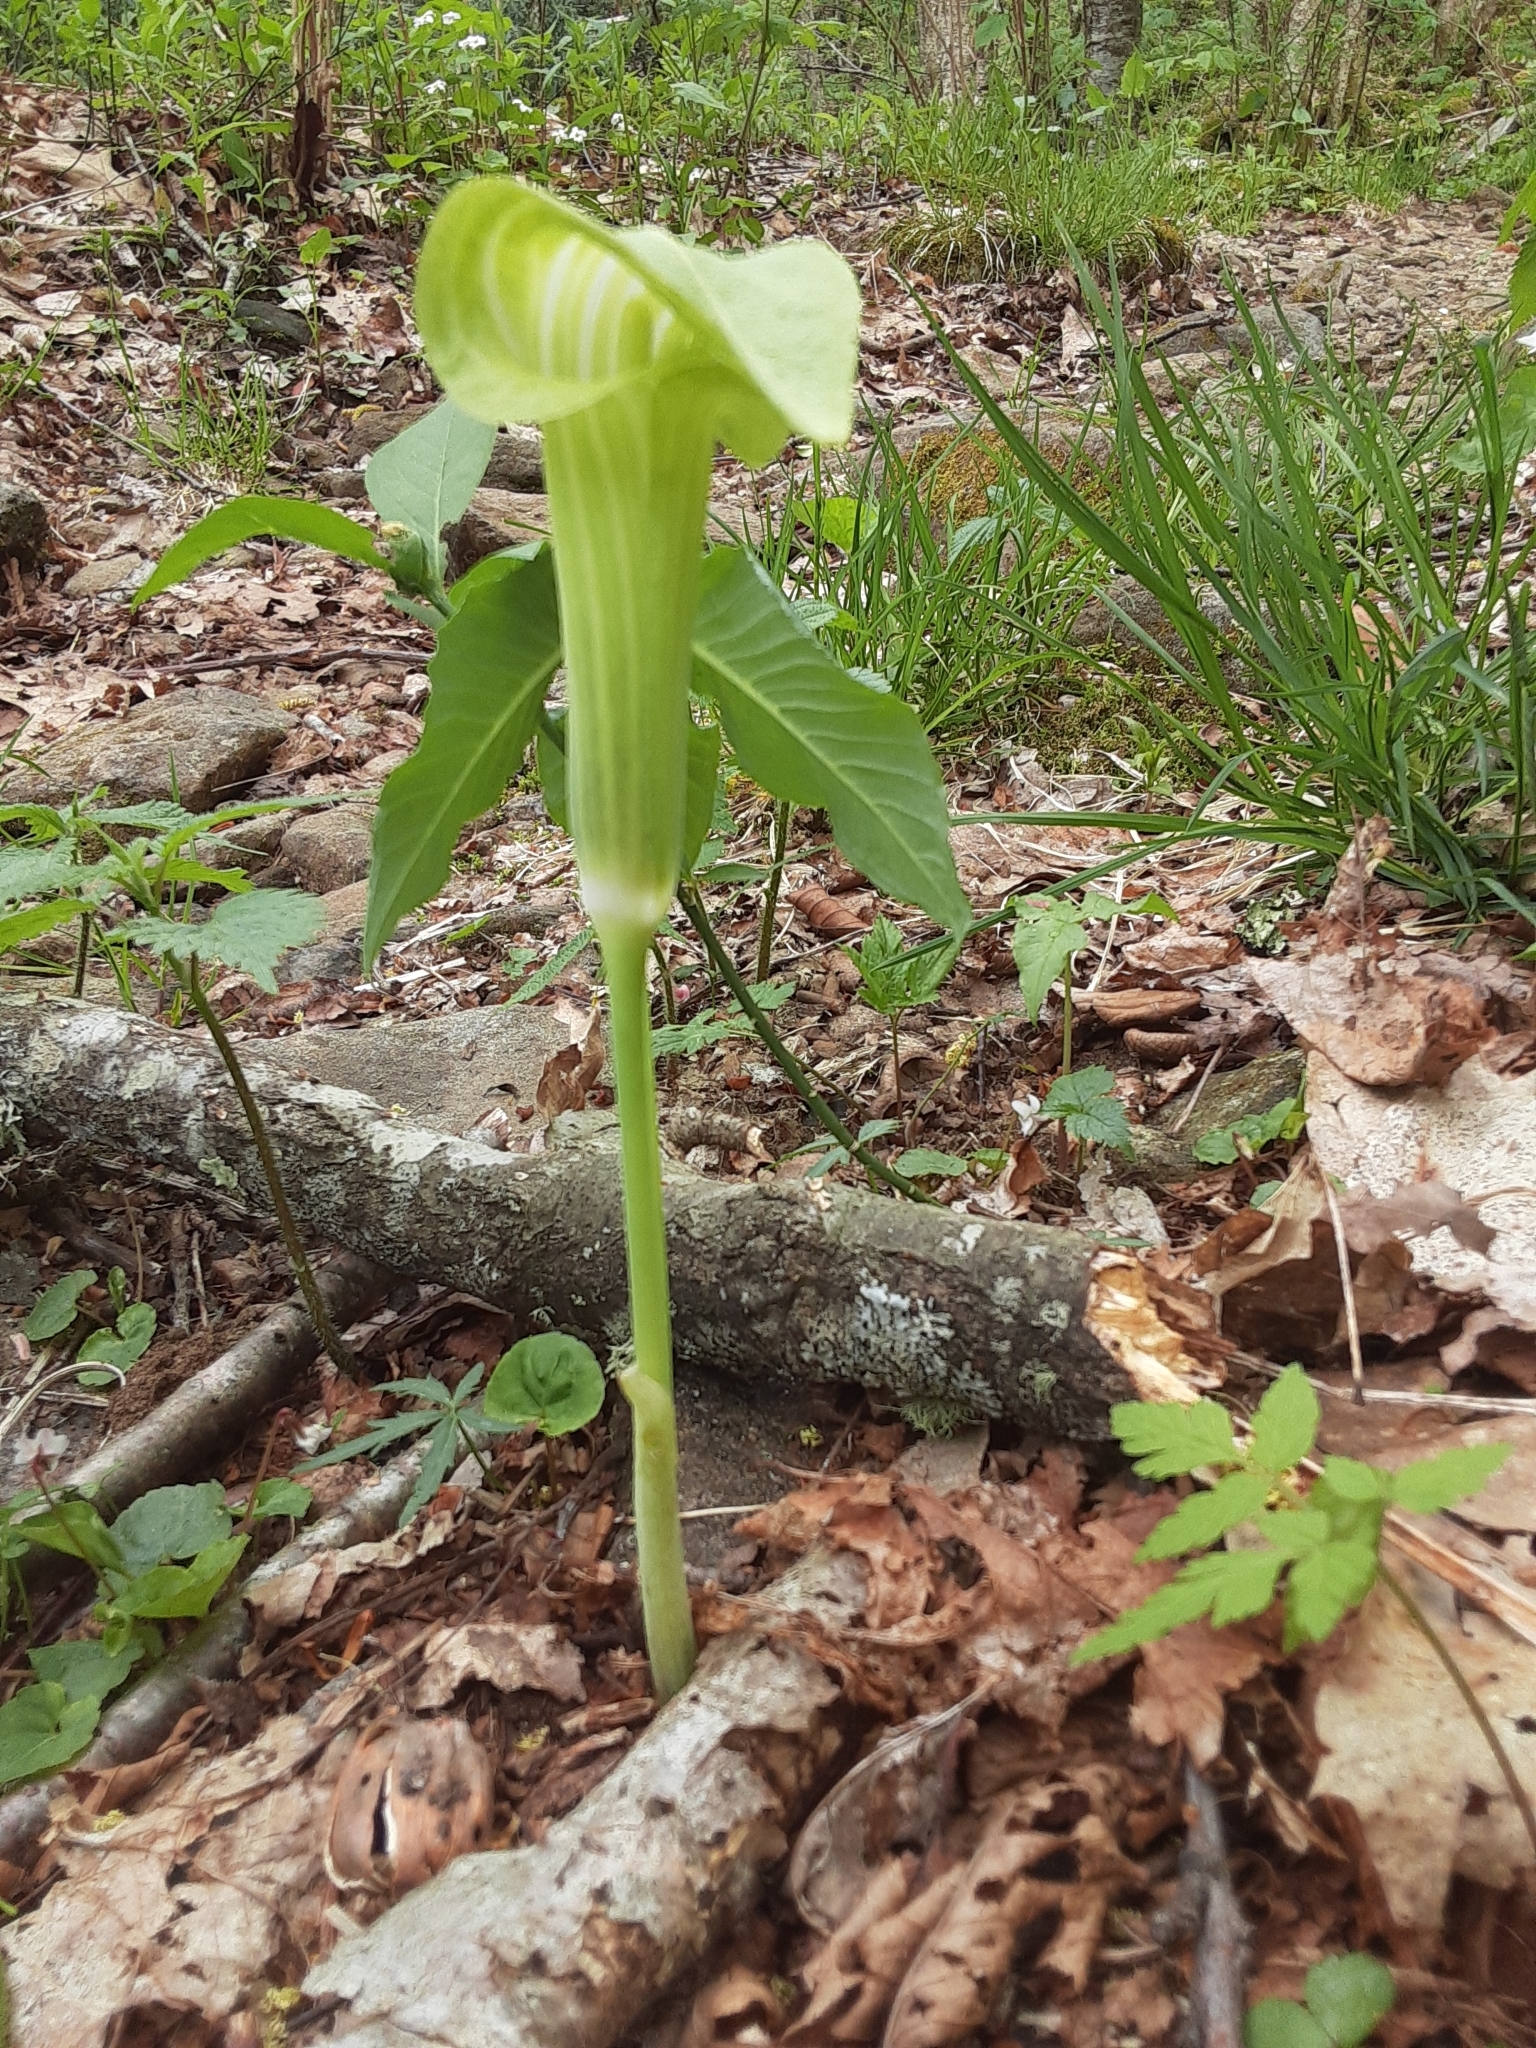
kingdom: Plantae
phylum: Tracheophyta
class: Liliopsida
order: Alismatales
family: Araceae
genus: Arisaema
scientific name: Arisaema triphyllum
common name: Jack-in-the-pulpit
